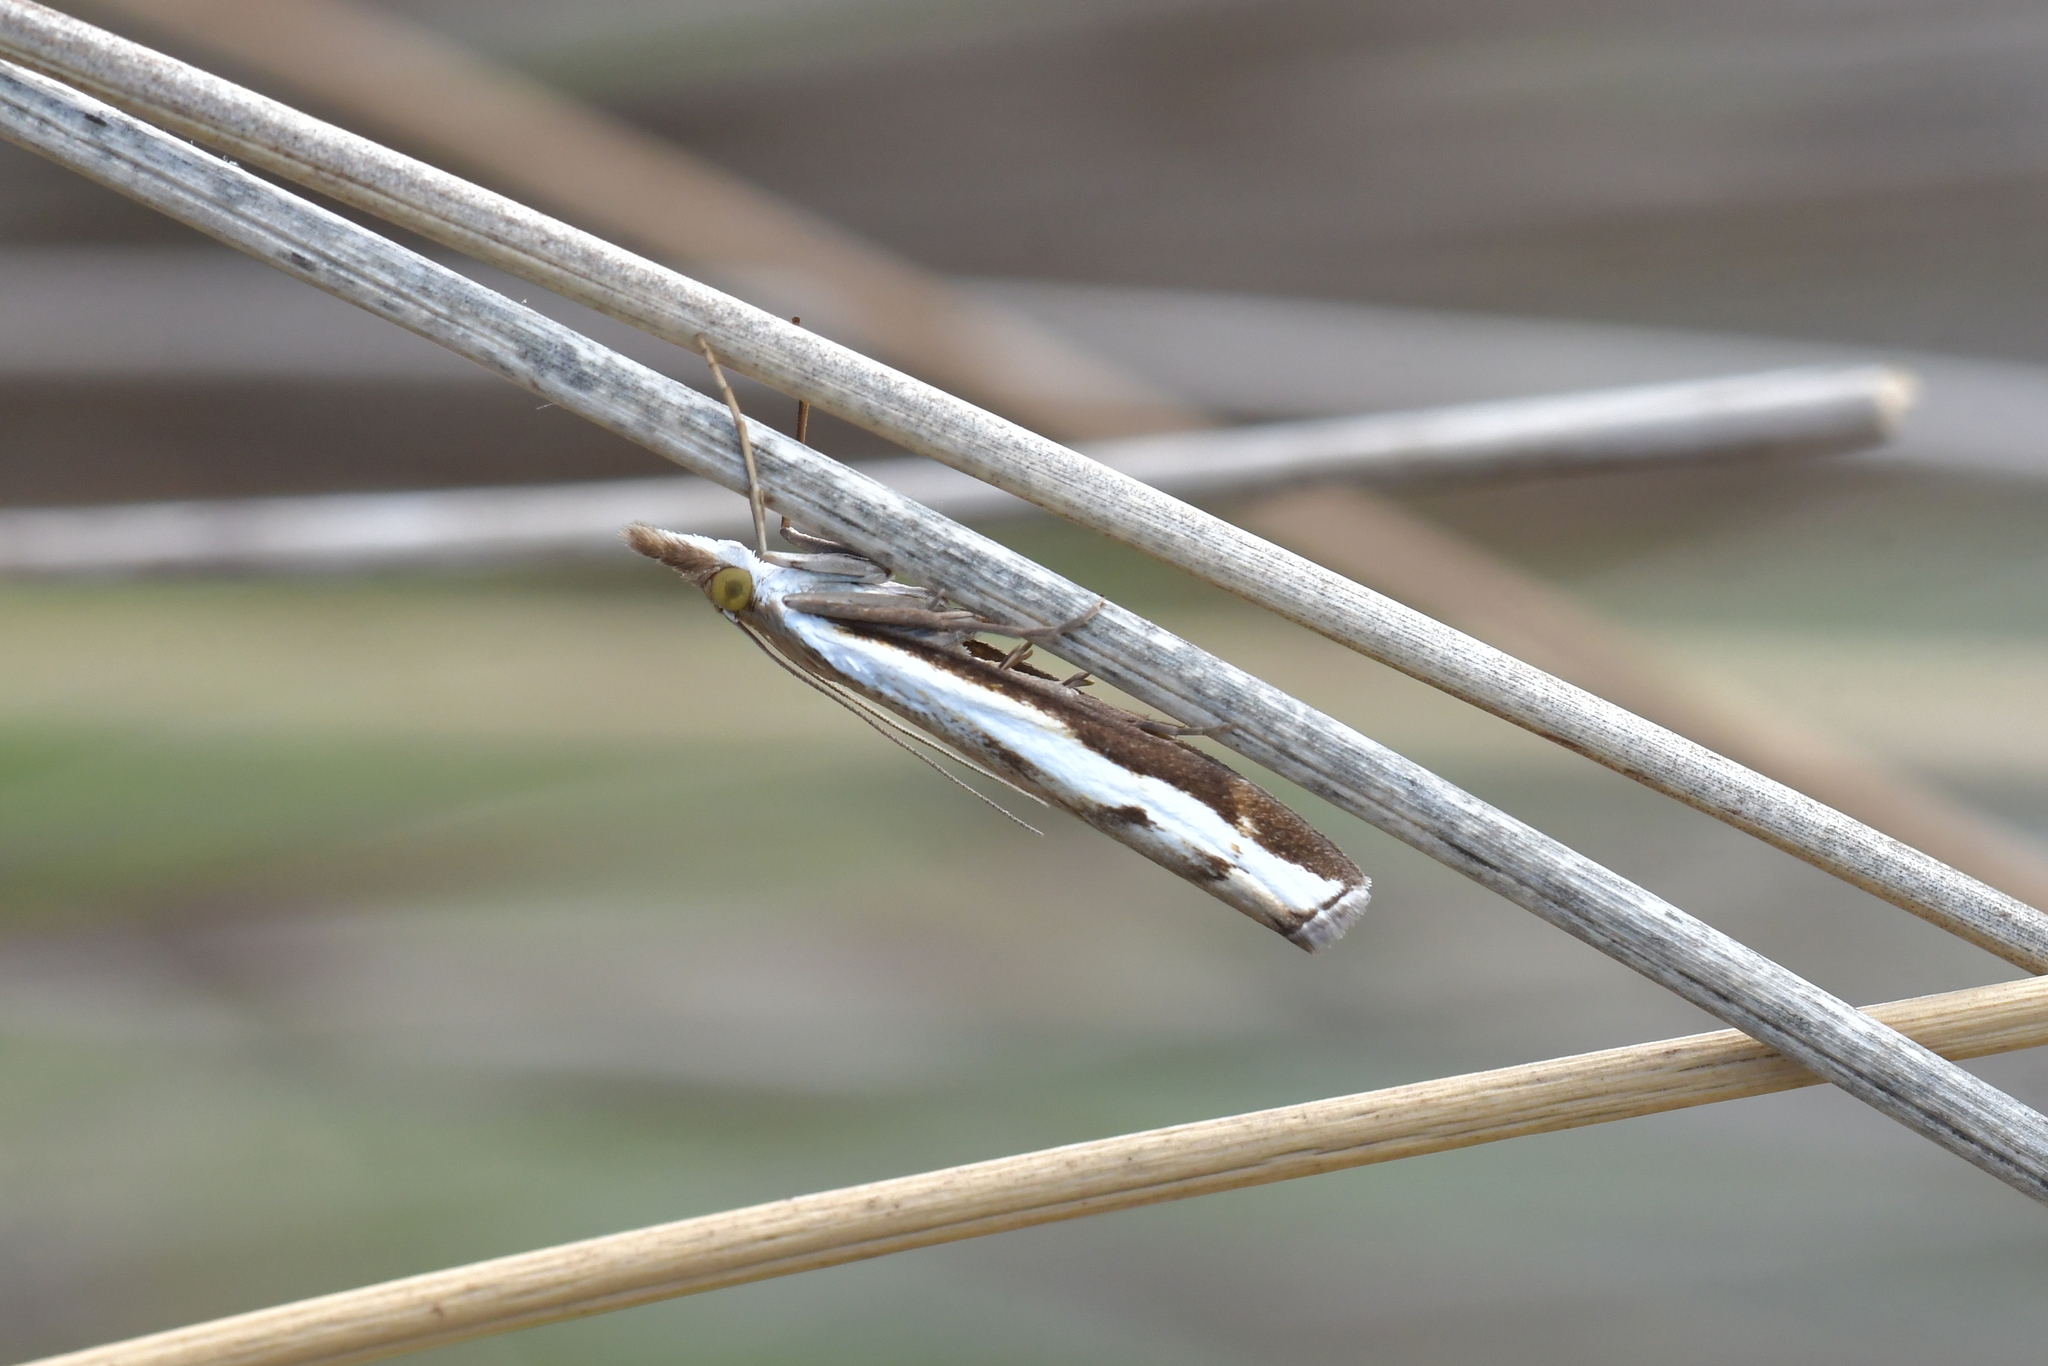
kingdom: Animalia
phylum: Arthropoda
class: Insecta
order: Lepidoptera
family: Crambidae
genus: Orocrambus
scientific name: Orocrambus flexuosellus
